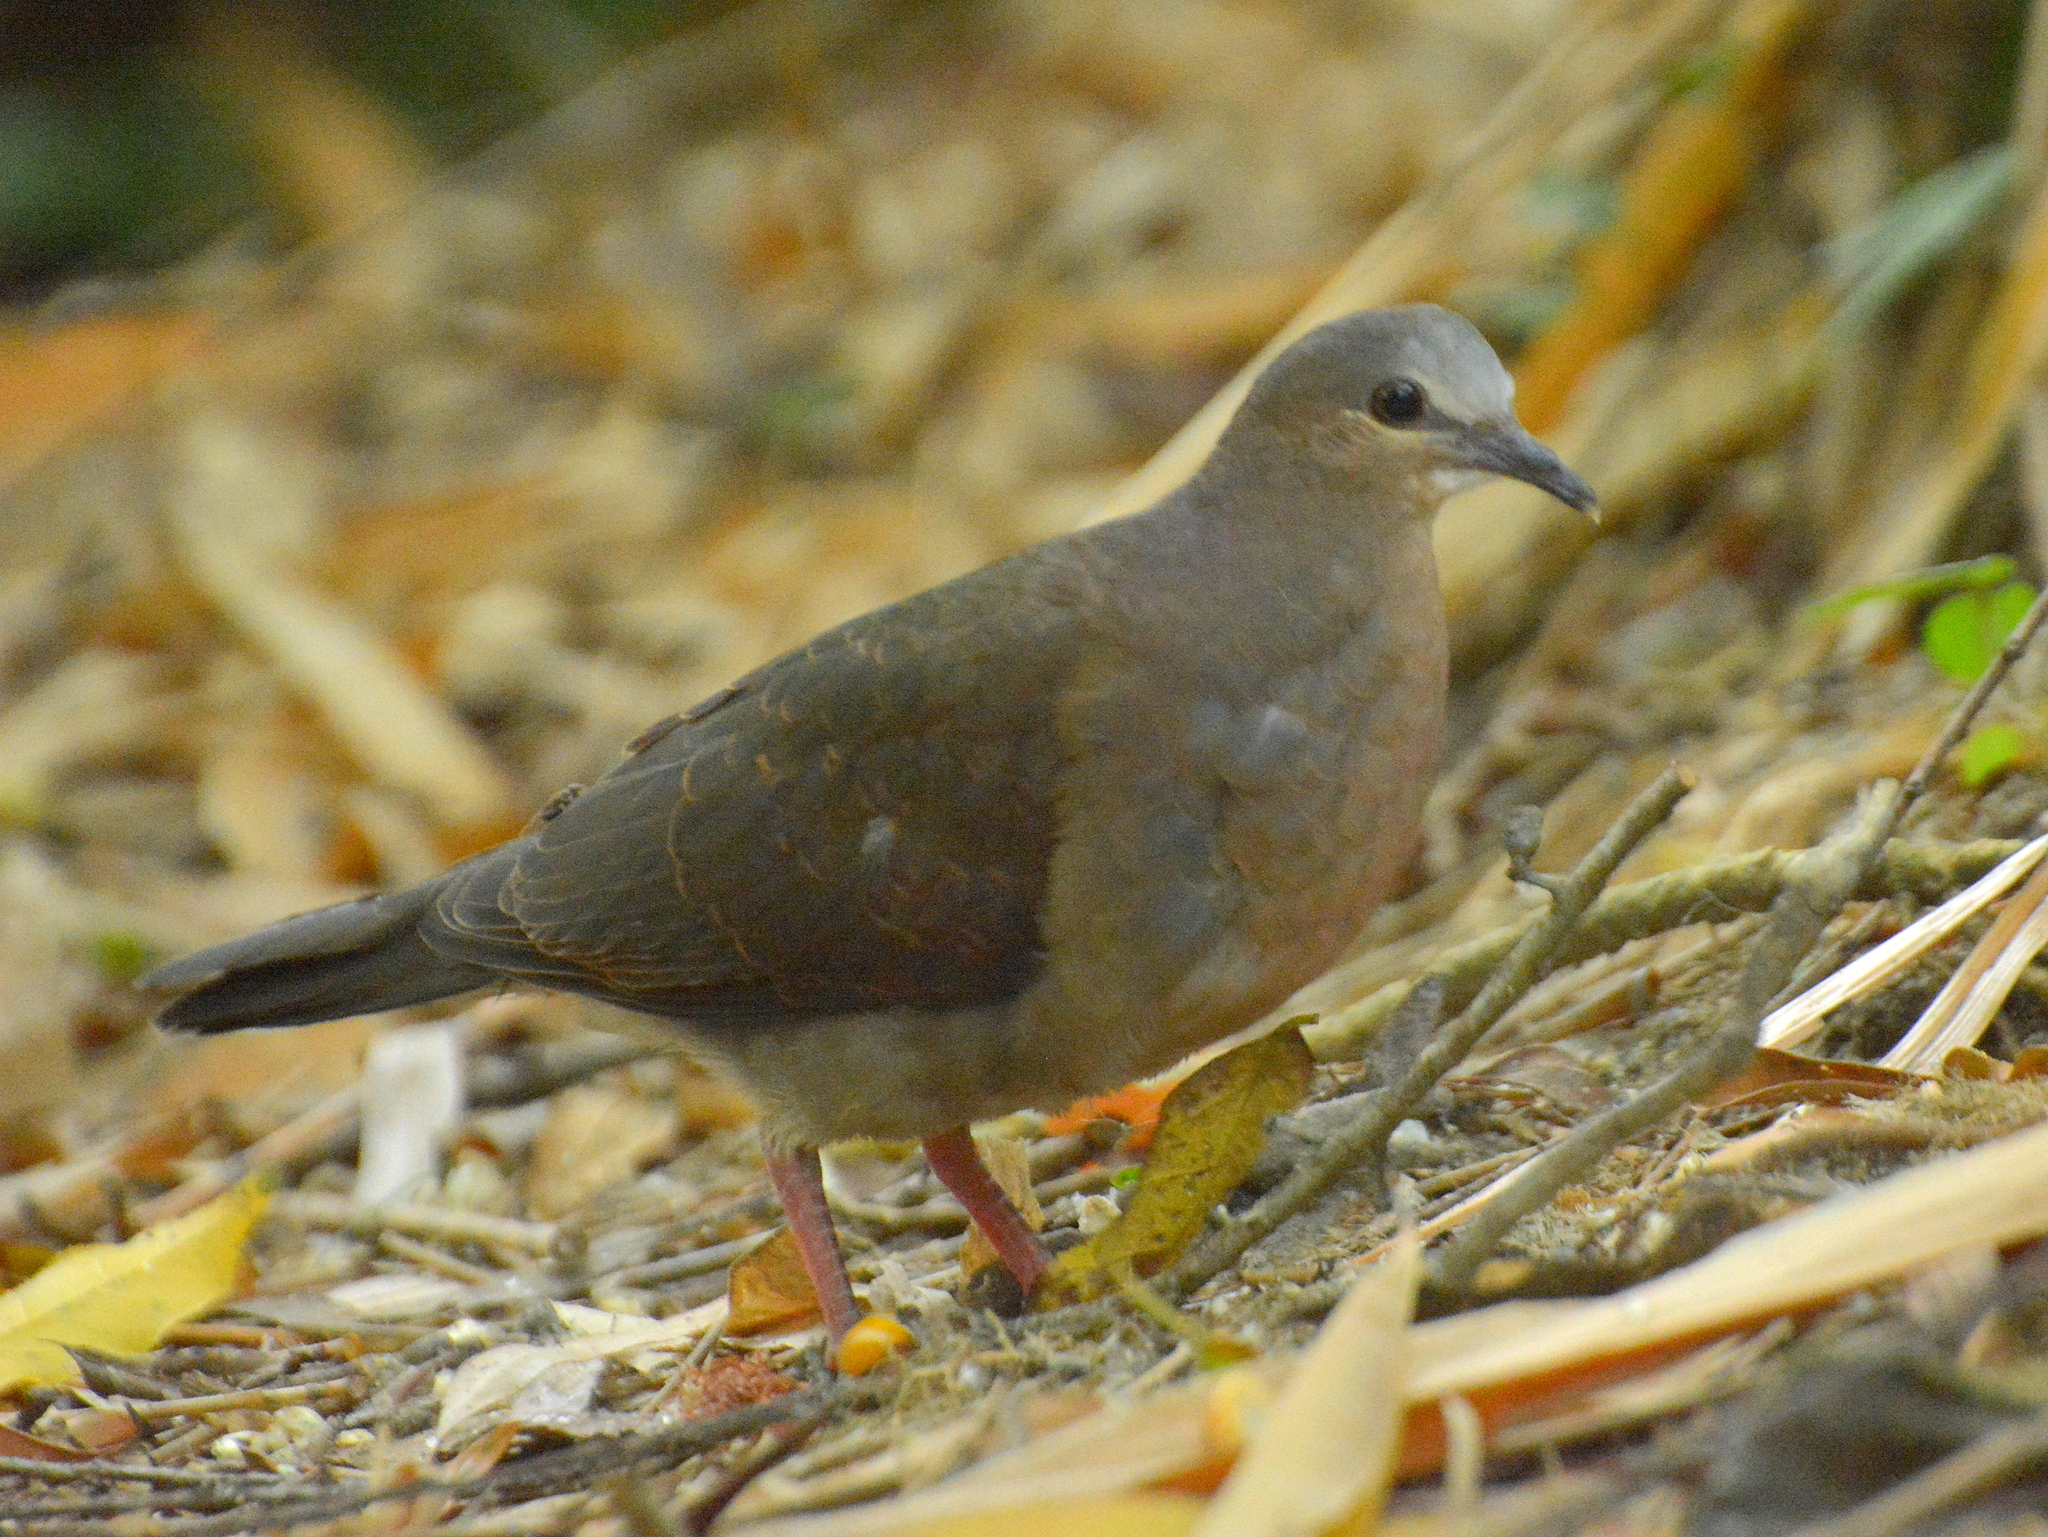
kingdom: Animalia
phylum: Chordata
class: Aves
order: Columbiformes
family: Columbidae
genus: Leptotila
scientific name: Leptotila rufaxilla
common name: Grey-fronted dove
